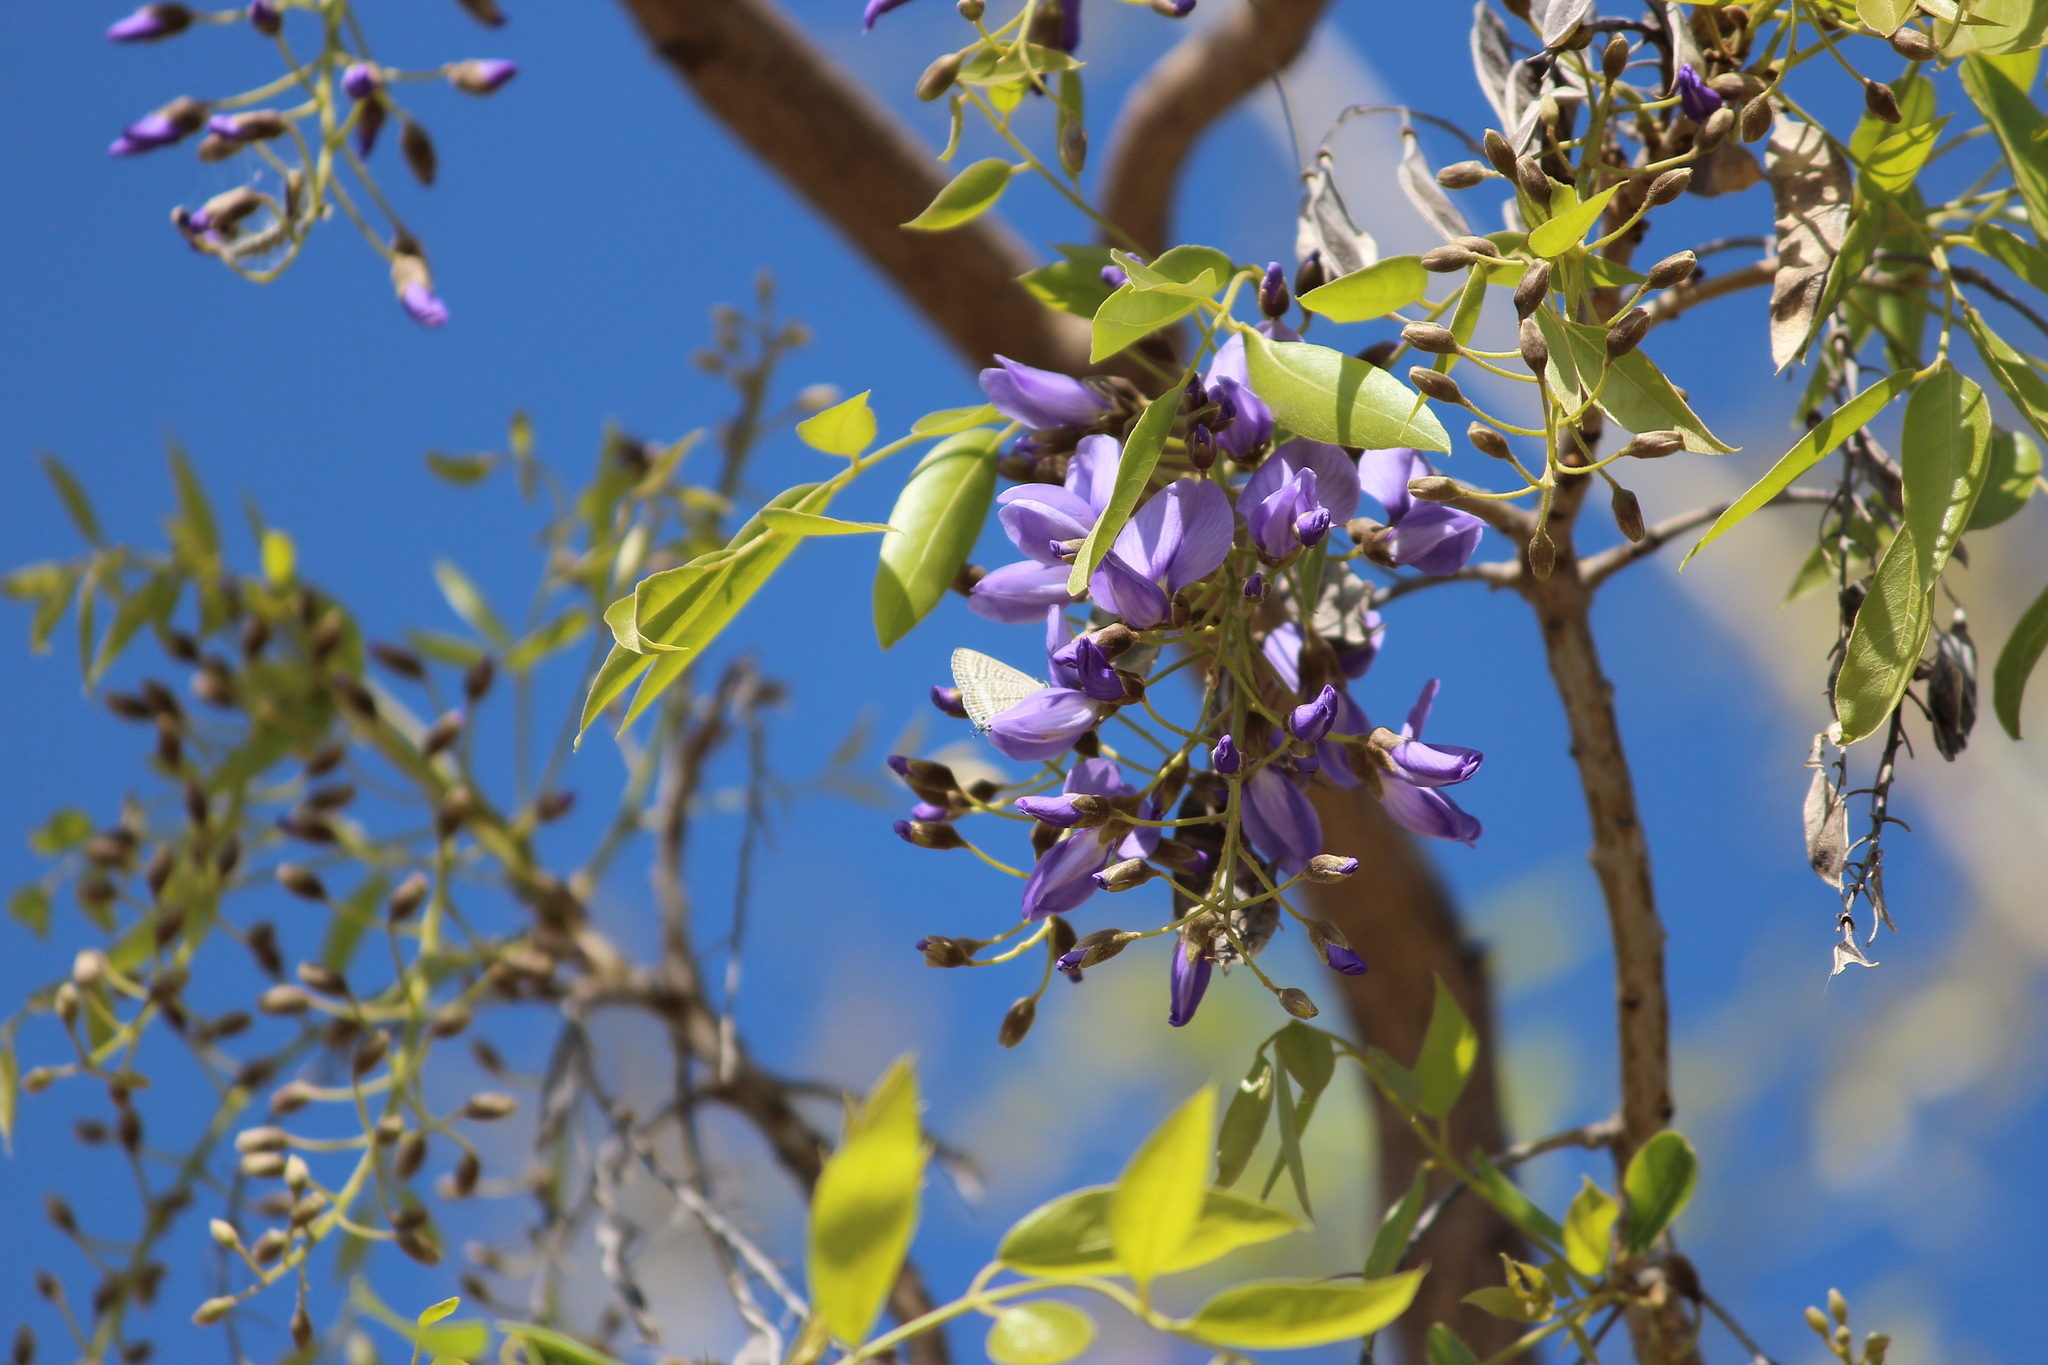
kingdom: Animalia
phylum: Arthropoda
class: Insecta
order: Lepidoptera
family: Lycaenidae
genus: Lampides
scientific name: Lampides boeticus
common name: Long-tailed blue
